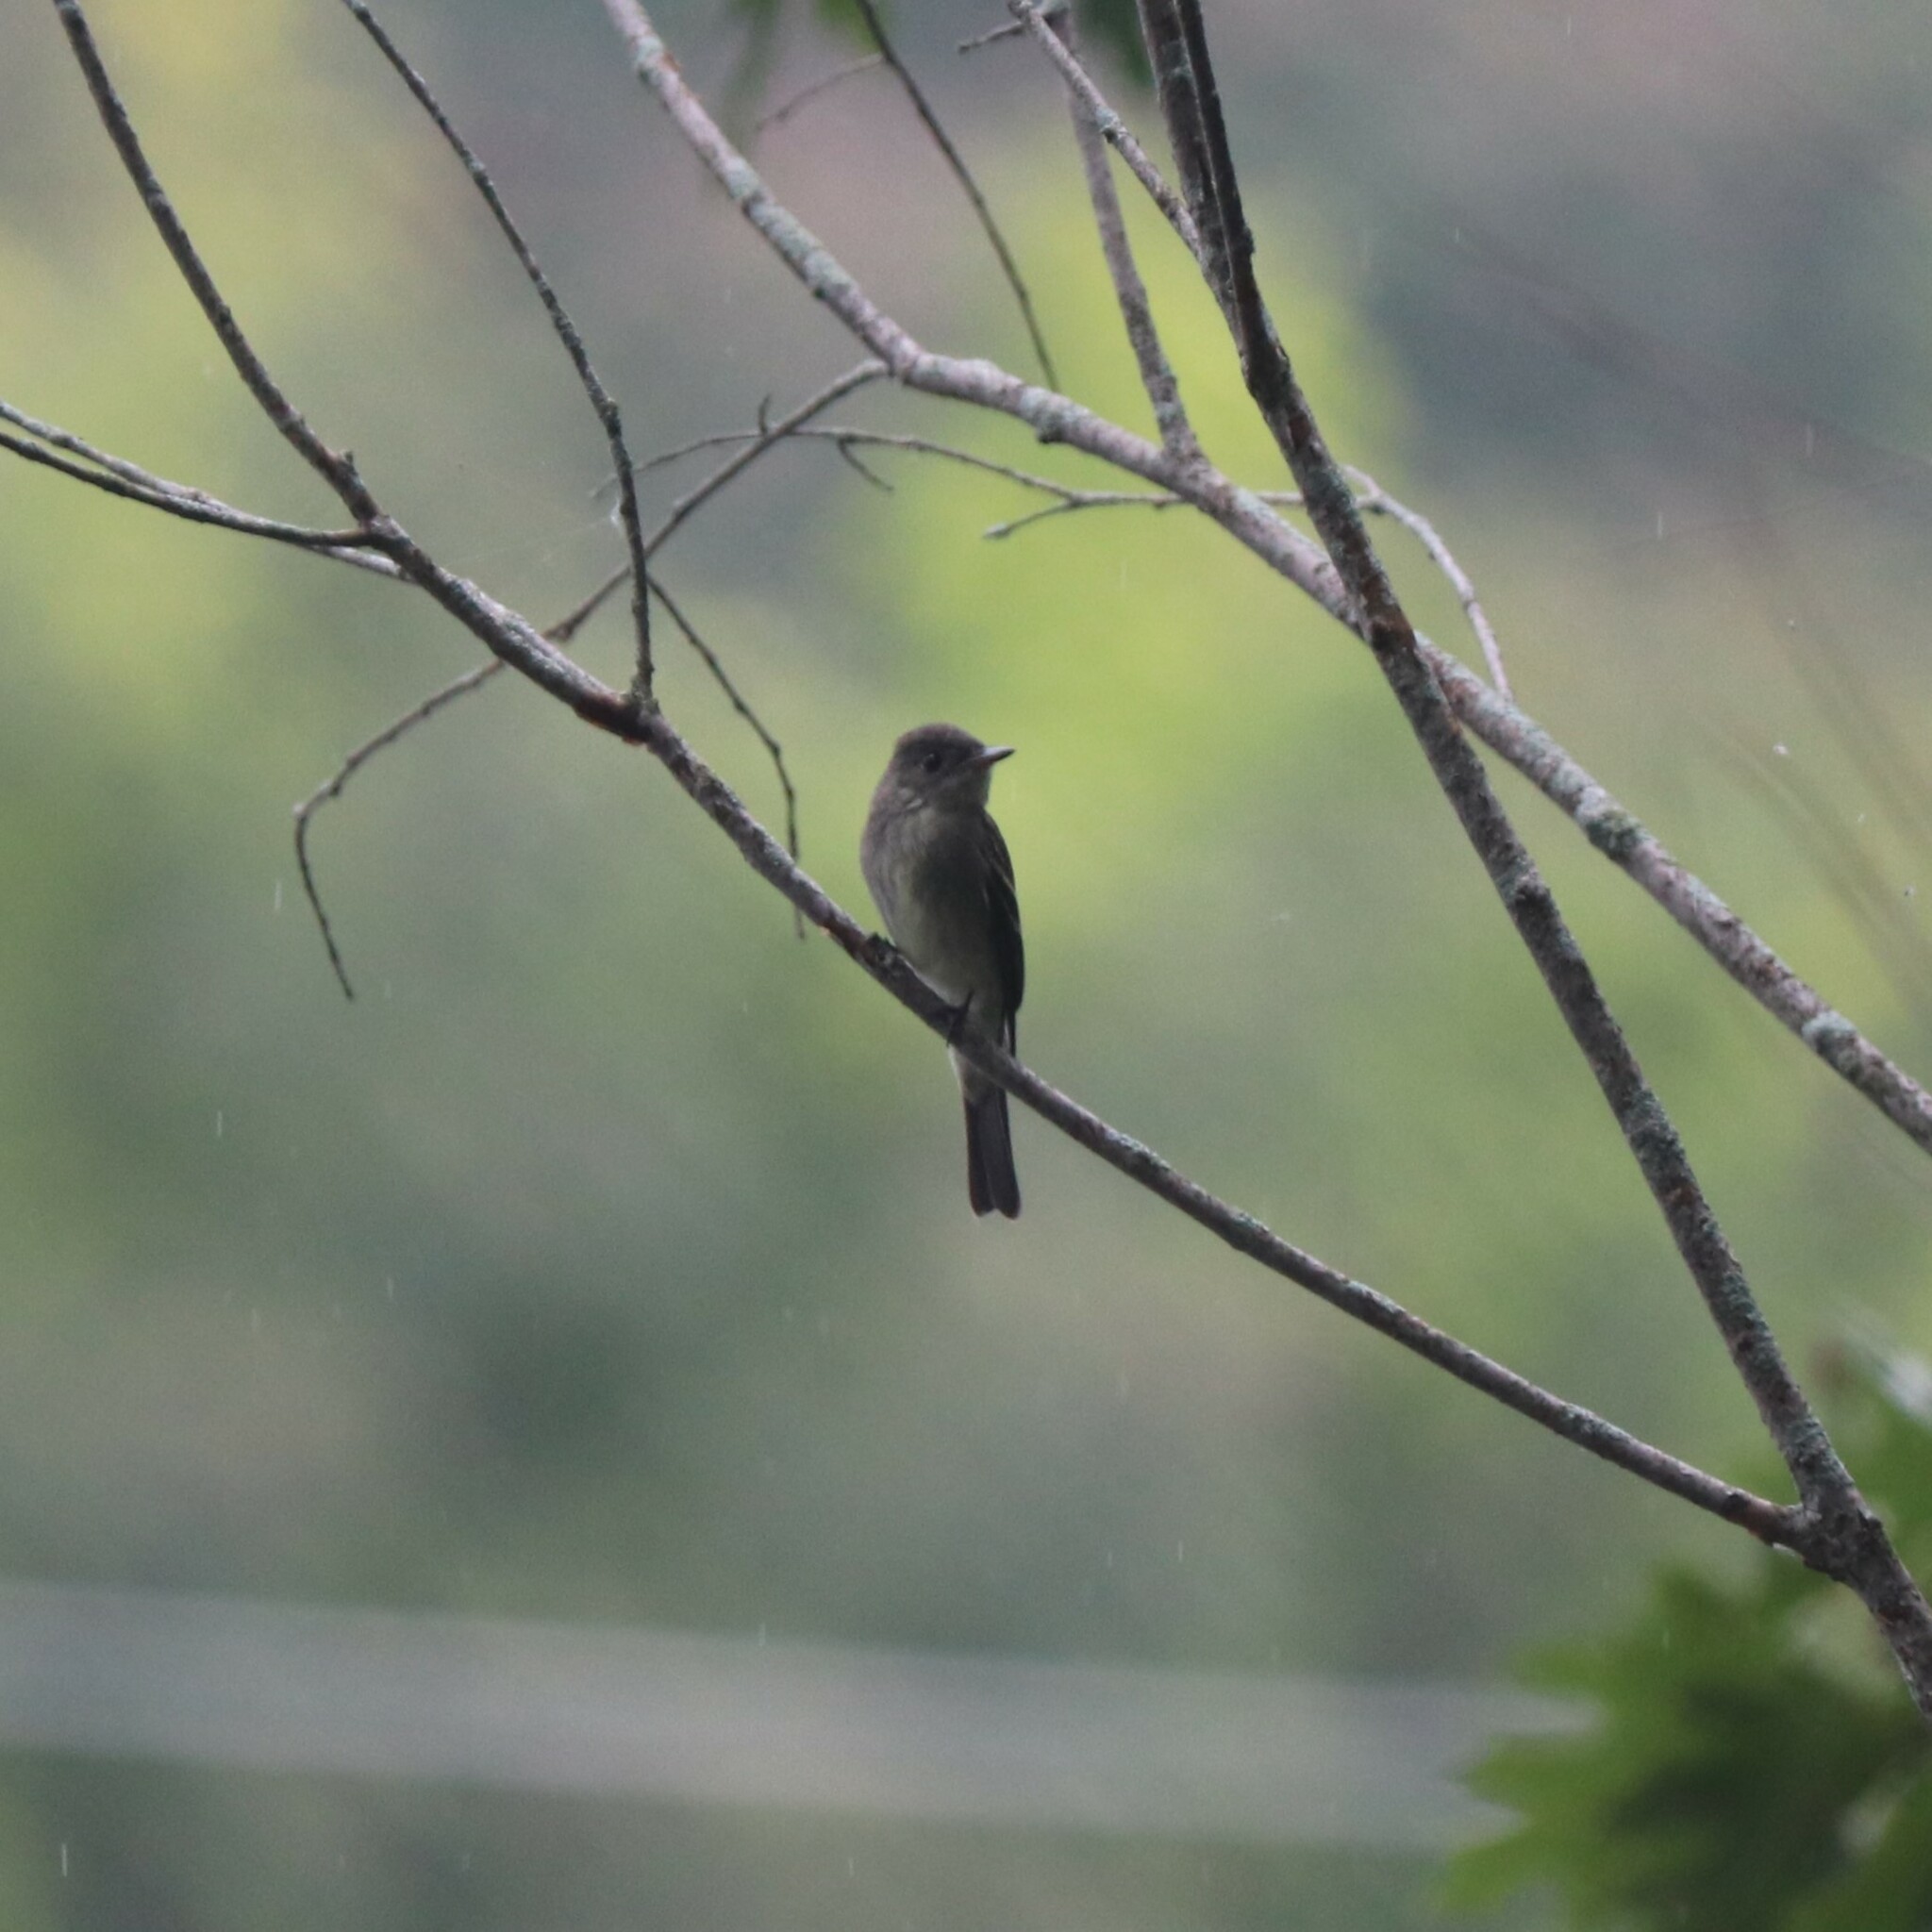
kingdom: Animalia
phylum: Chordata
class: Aves
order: Passeriformes
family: Tyrannidae
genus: Contopus
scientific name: Contopus virens
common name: Eastern wood-pewee
